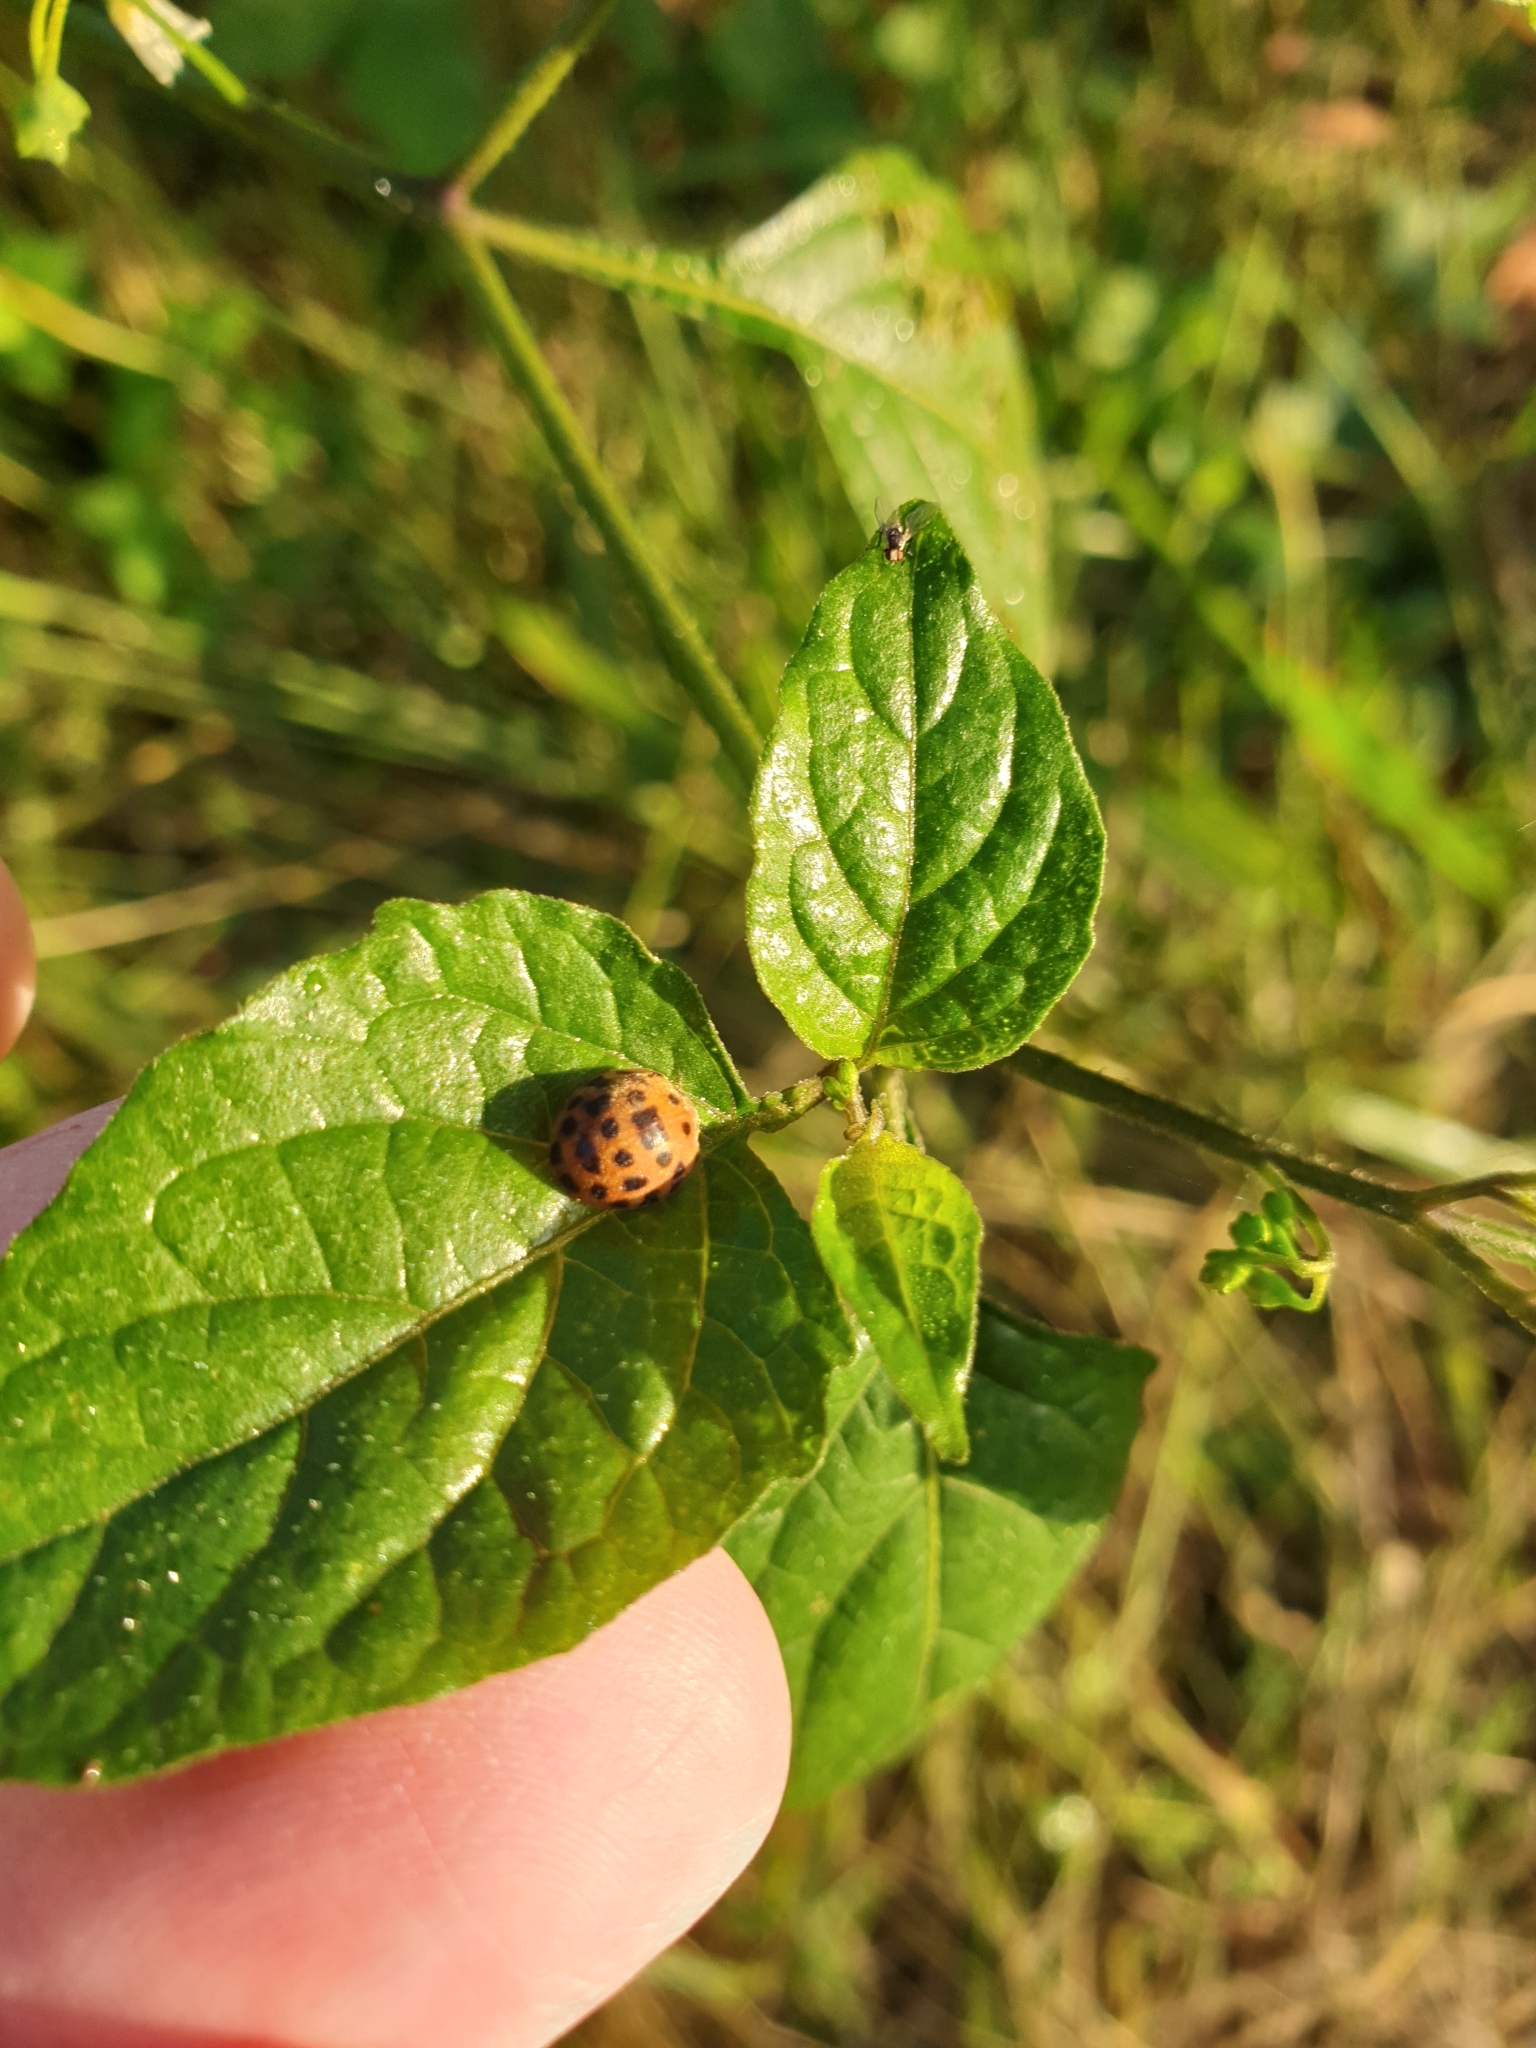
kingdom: Animalia
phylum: Arthropoda
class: Insecta
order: Coleoptera
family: Coccinellidae
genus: Henosepilachna
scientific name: Henosepilachna vigintioctopunctata
